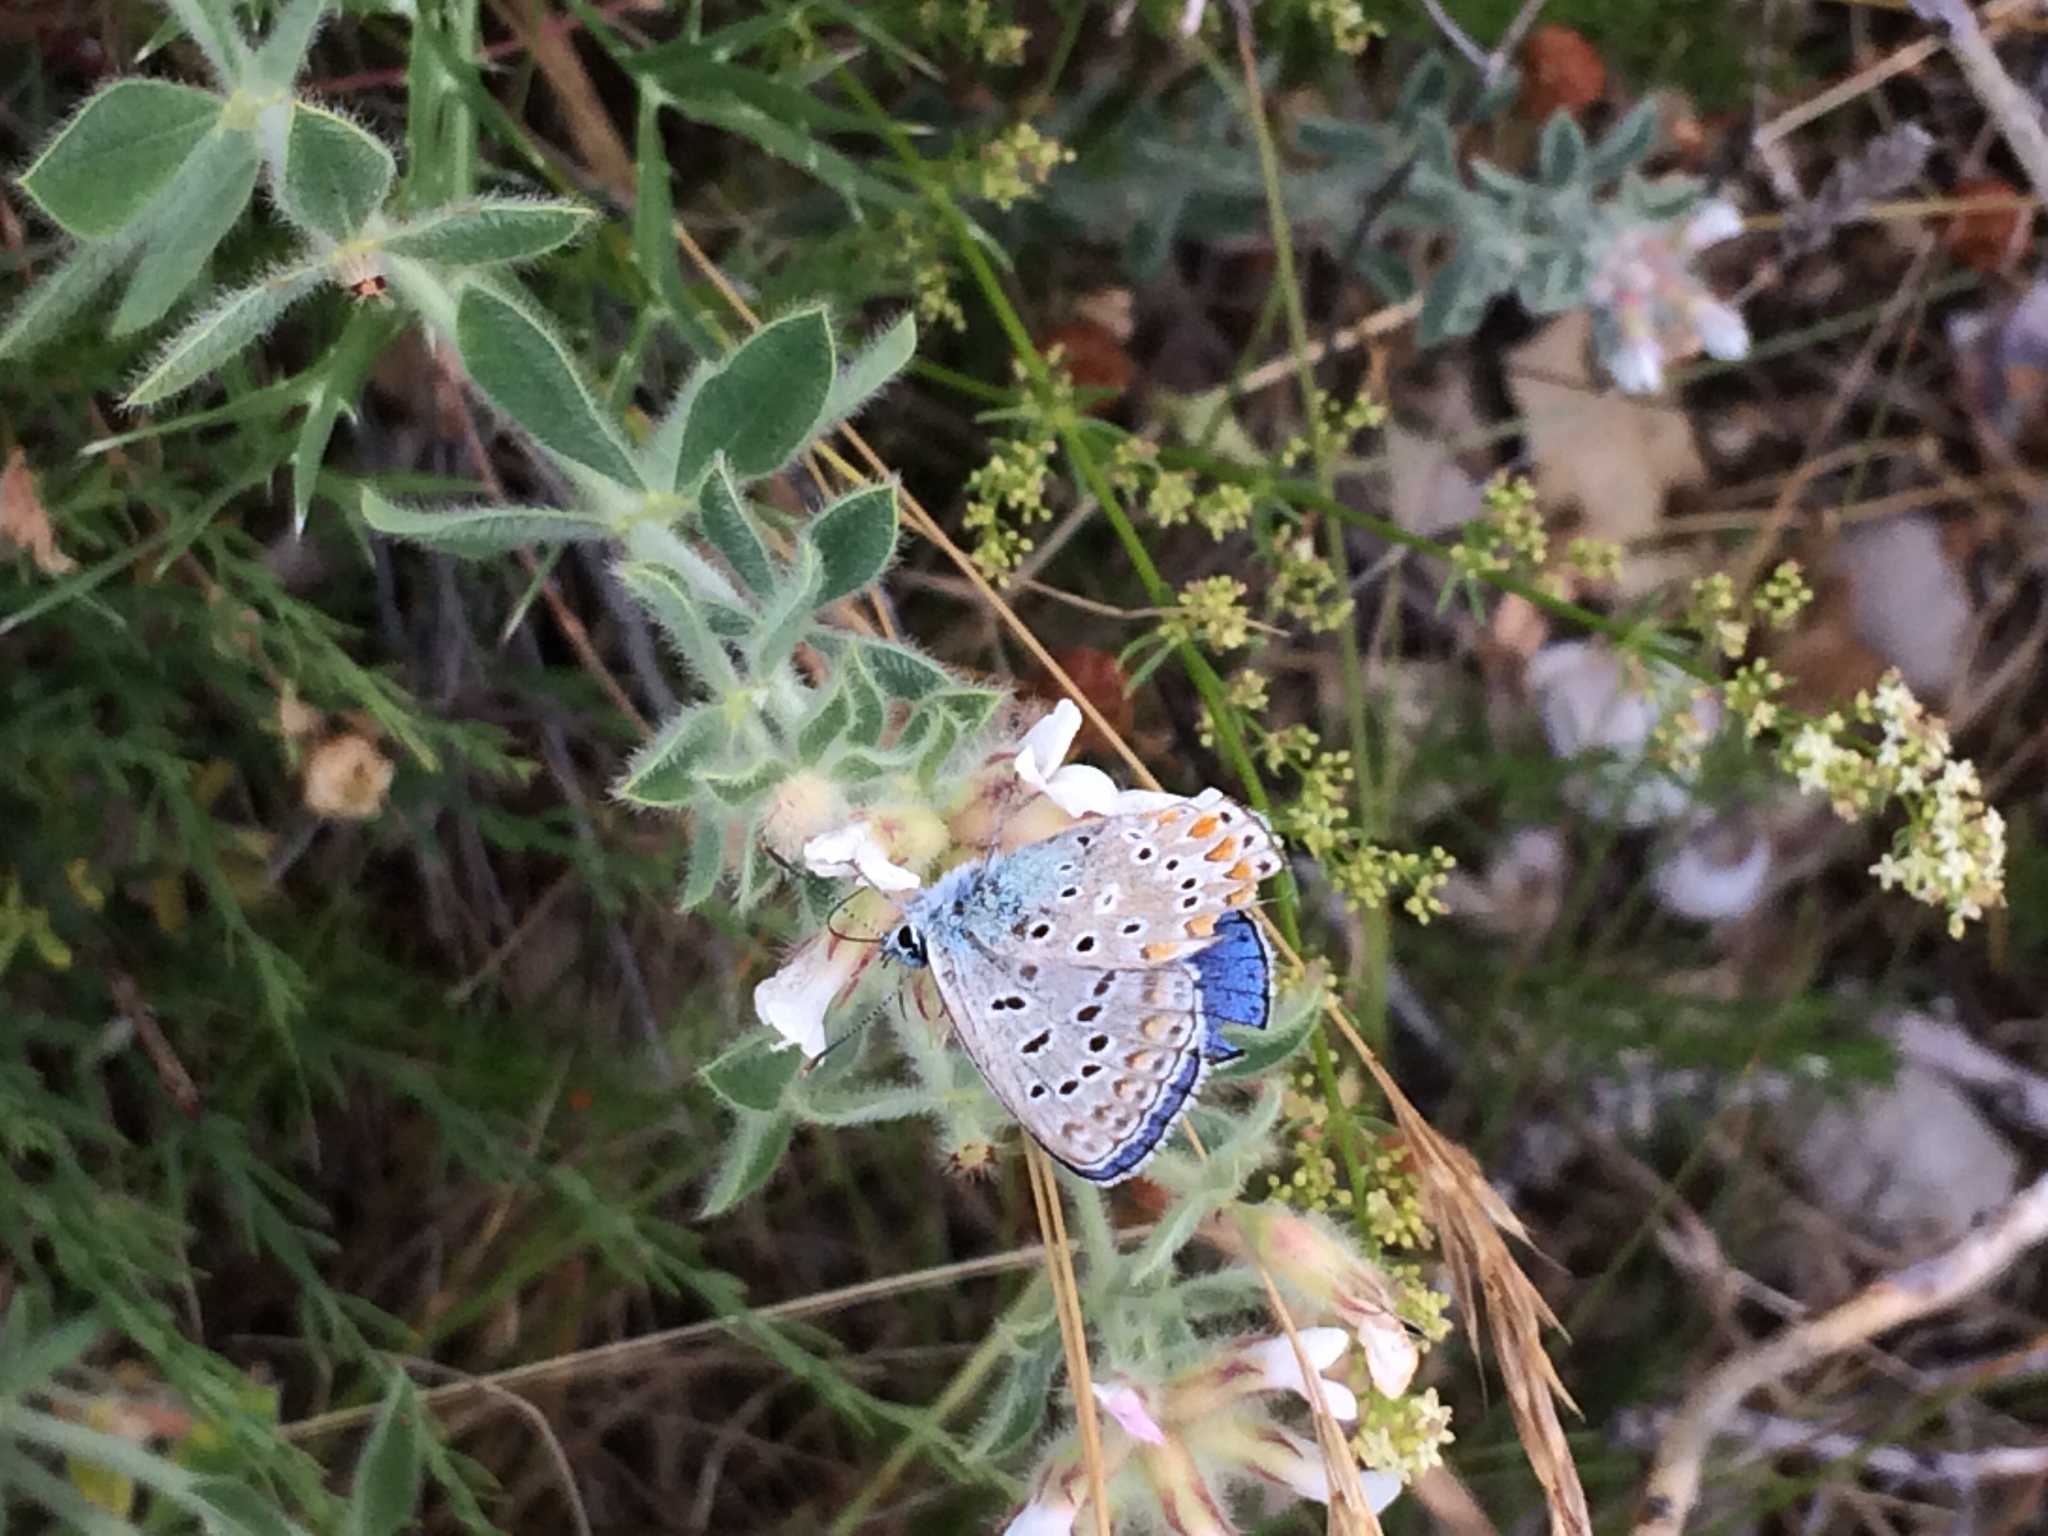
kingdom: Animalia
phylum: Arthropoda
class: Insecta
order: Lepidoptera
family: Lycaenidae
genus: Lysandra
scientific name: Lysandra bellargus
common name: Adonis blue
